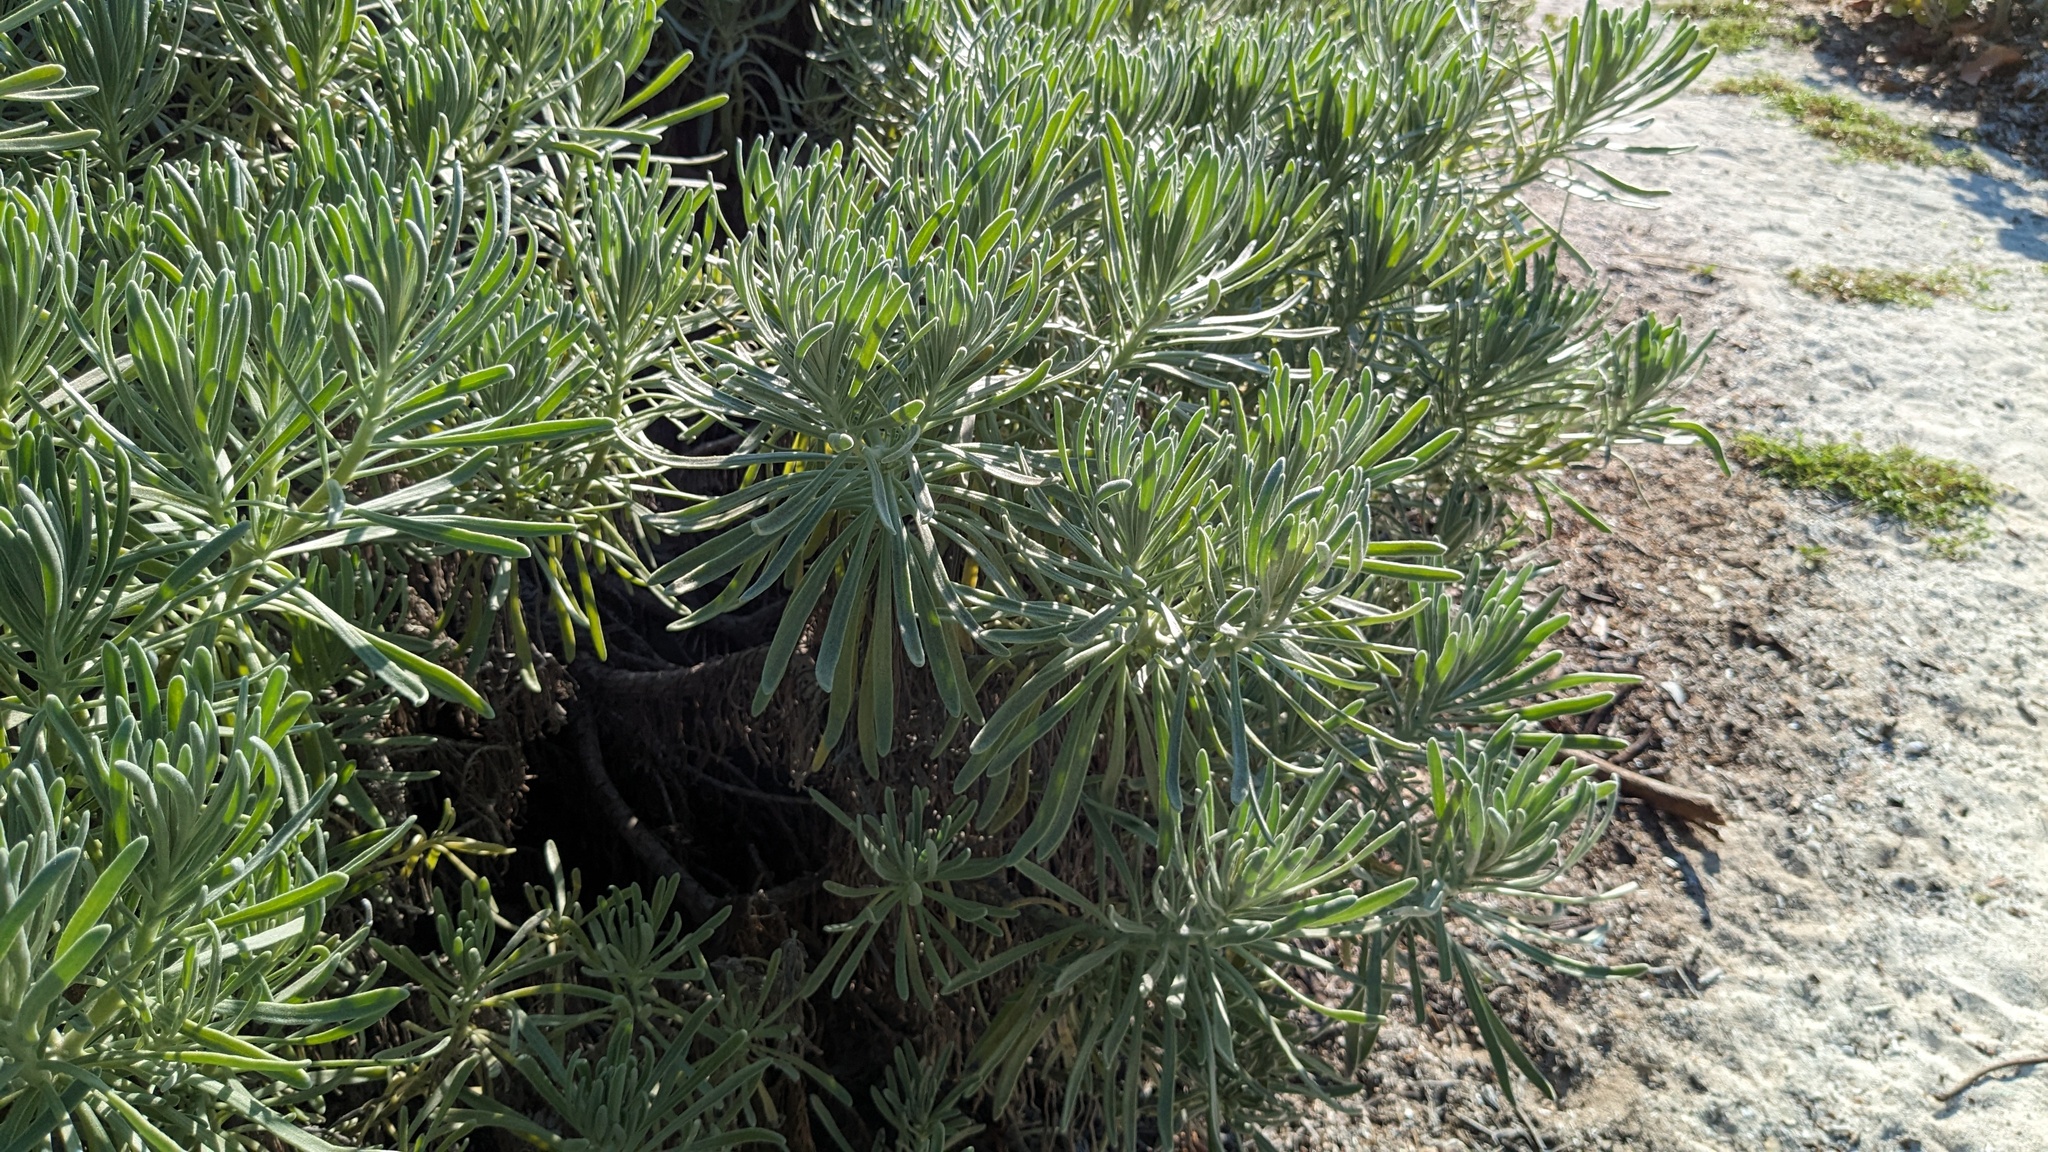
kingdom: Plantae
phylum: Tracheophyta
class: Magnoliopsida
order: Boraginales
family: Heliotropiaceae
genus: Tournefortia
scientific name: Tournefortia gnaphalodes
